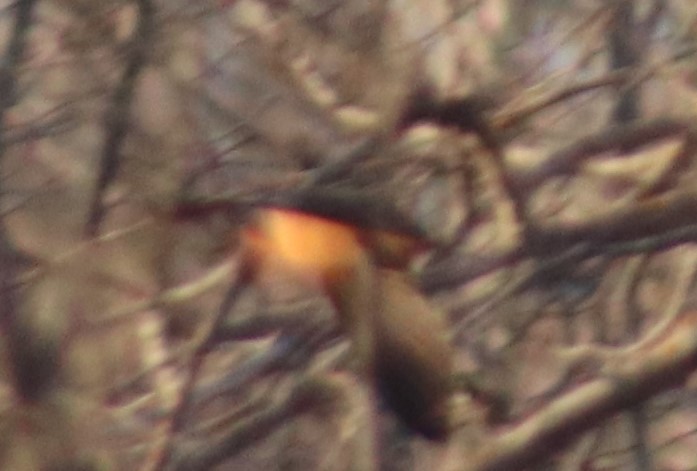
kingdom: Animalia
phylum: Chordata
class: Aves
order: Passeriformes
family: Hirundinidae
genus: Hirundo
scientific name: Hirundo rustica
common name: Barn swallow
